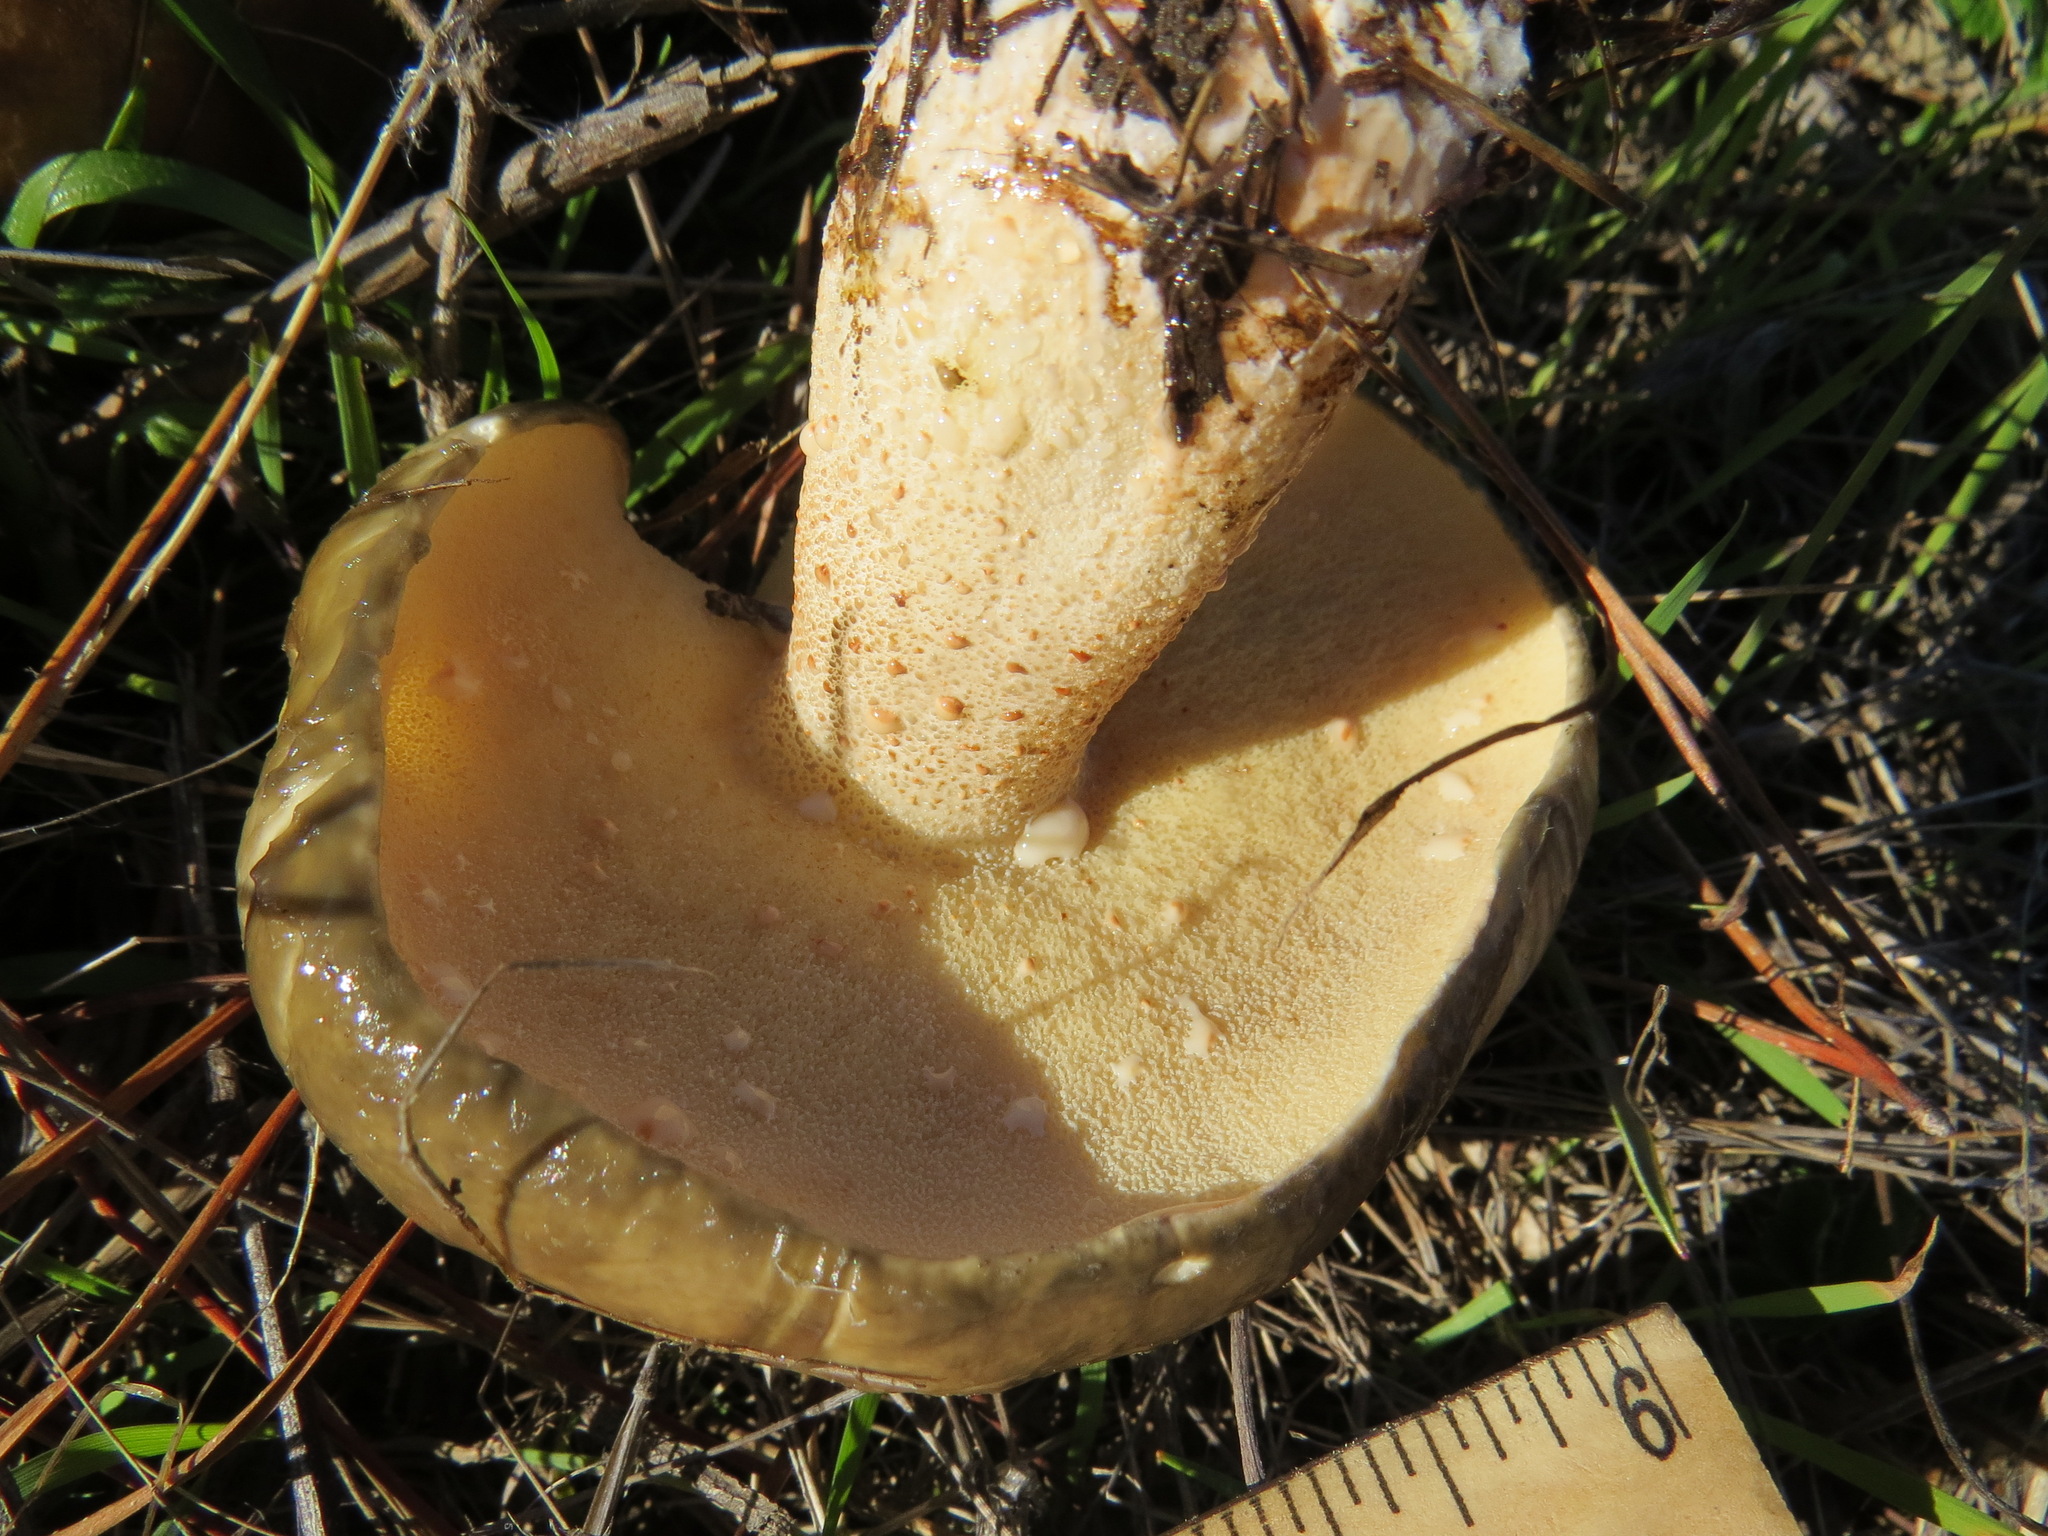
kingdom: Fungi
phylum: Basidiomycota
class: Agaricomycetes
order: Boletales
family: Suillaceae
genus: Suillus
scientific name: Suillus pungens
